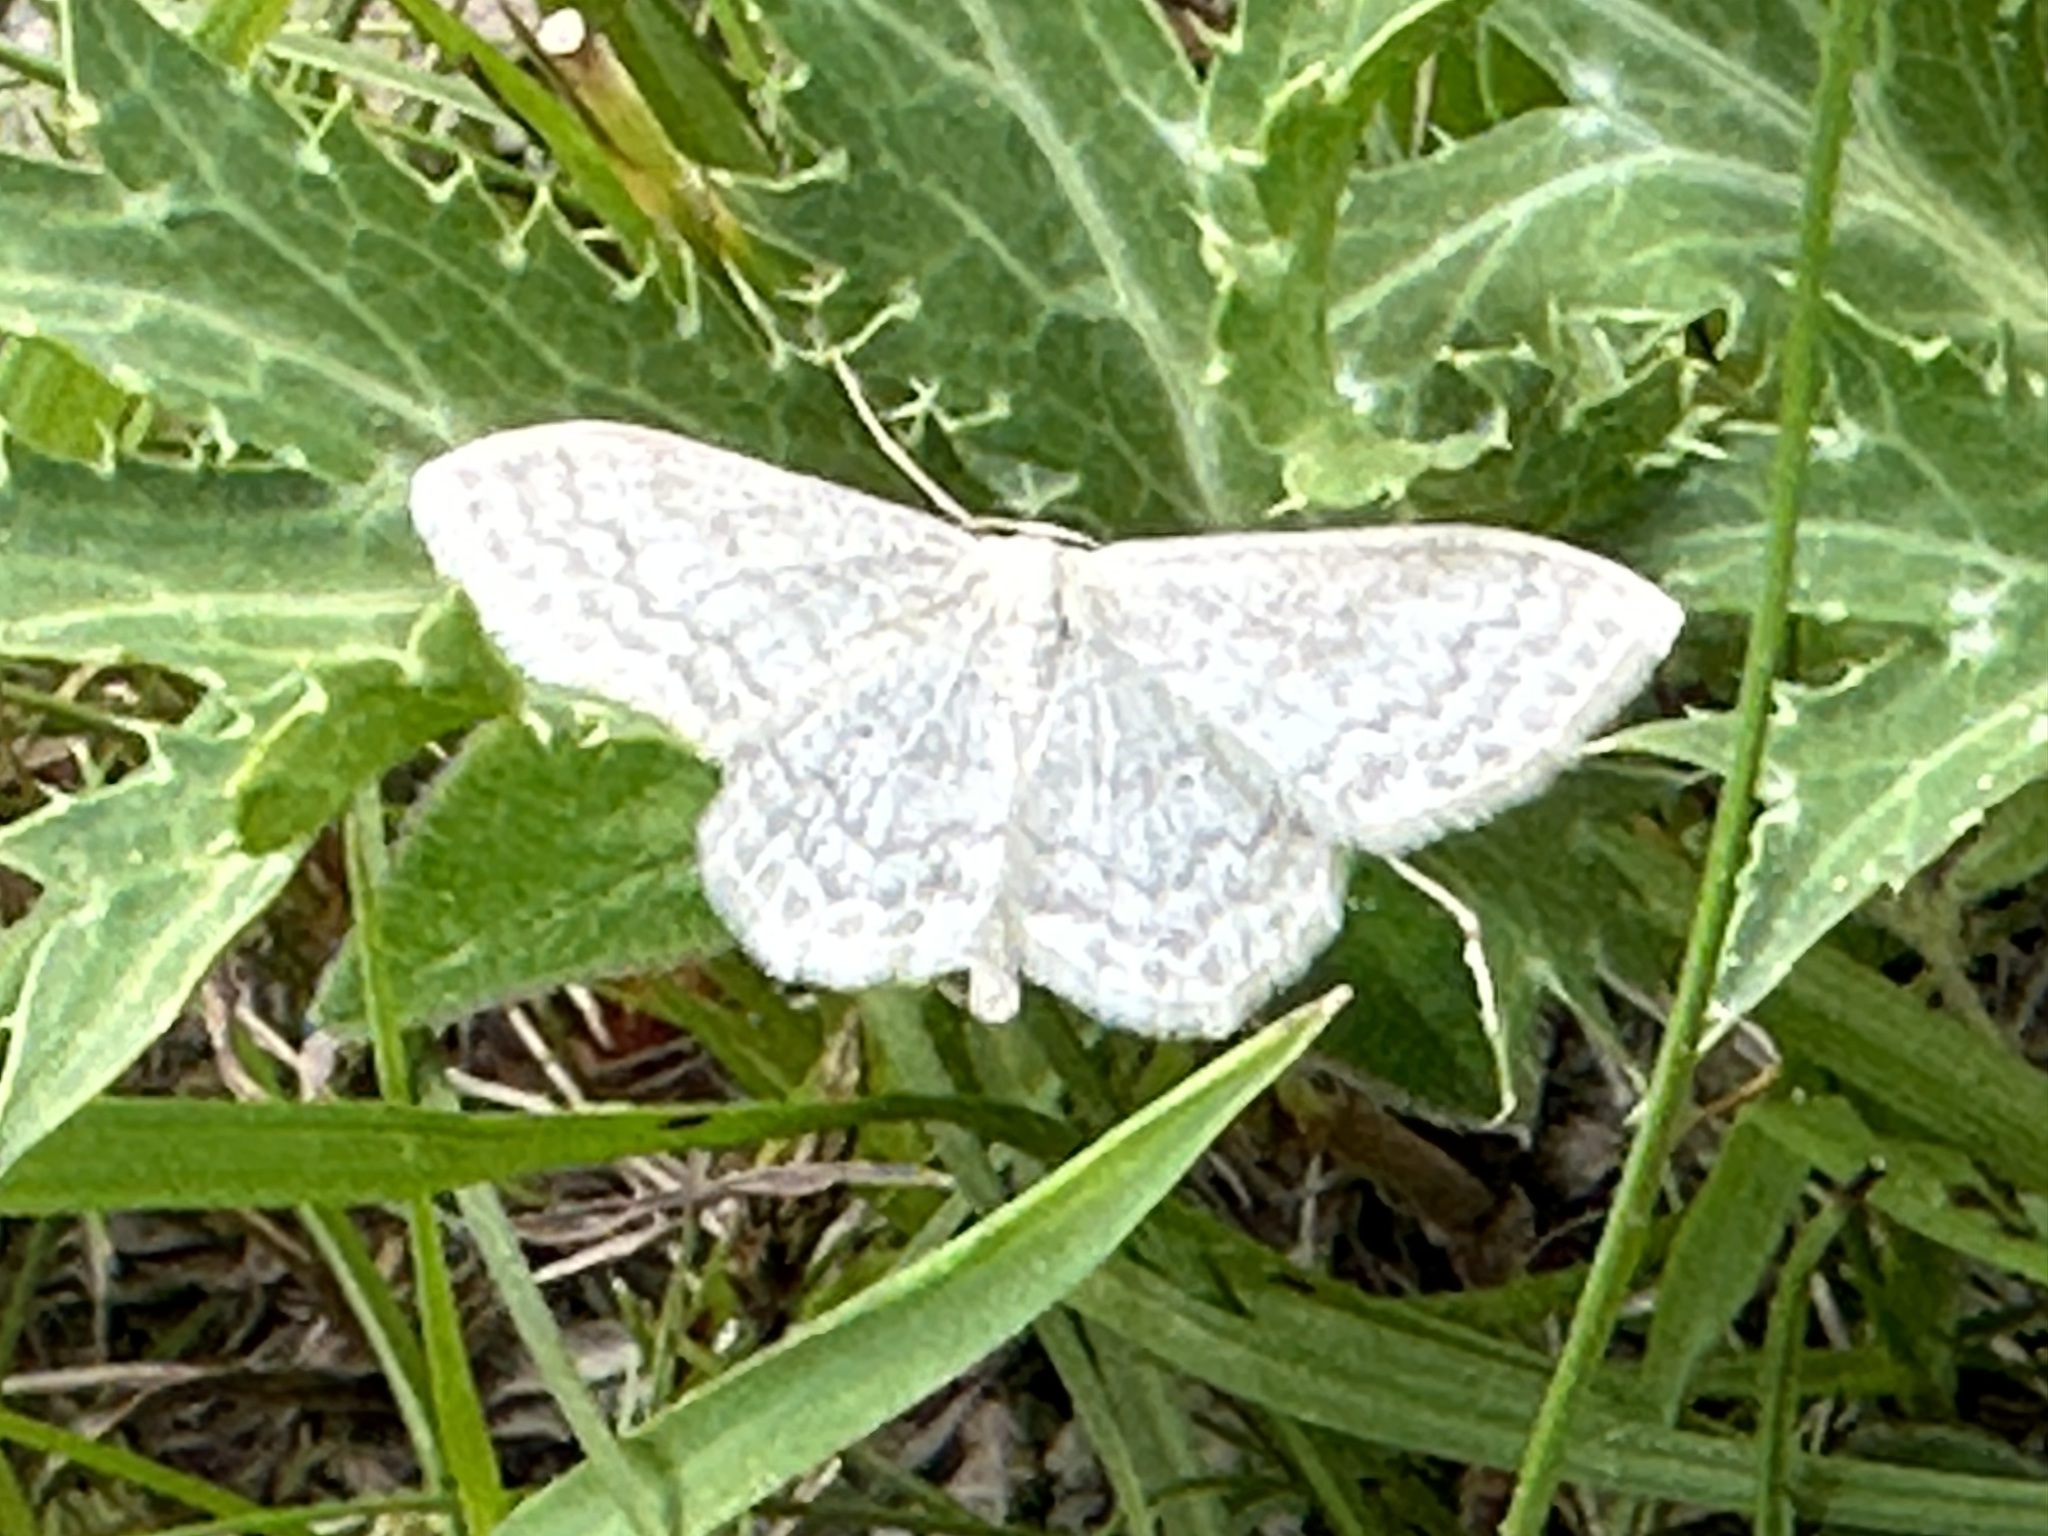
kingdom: Animalia
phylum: Arthropoda
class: Insecta
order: Lepidoptera
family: Geometridae
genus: Scopula
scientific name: Scopula floslactata
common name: Cream wave
